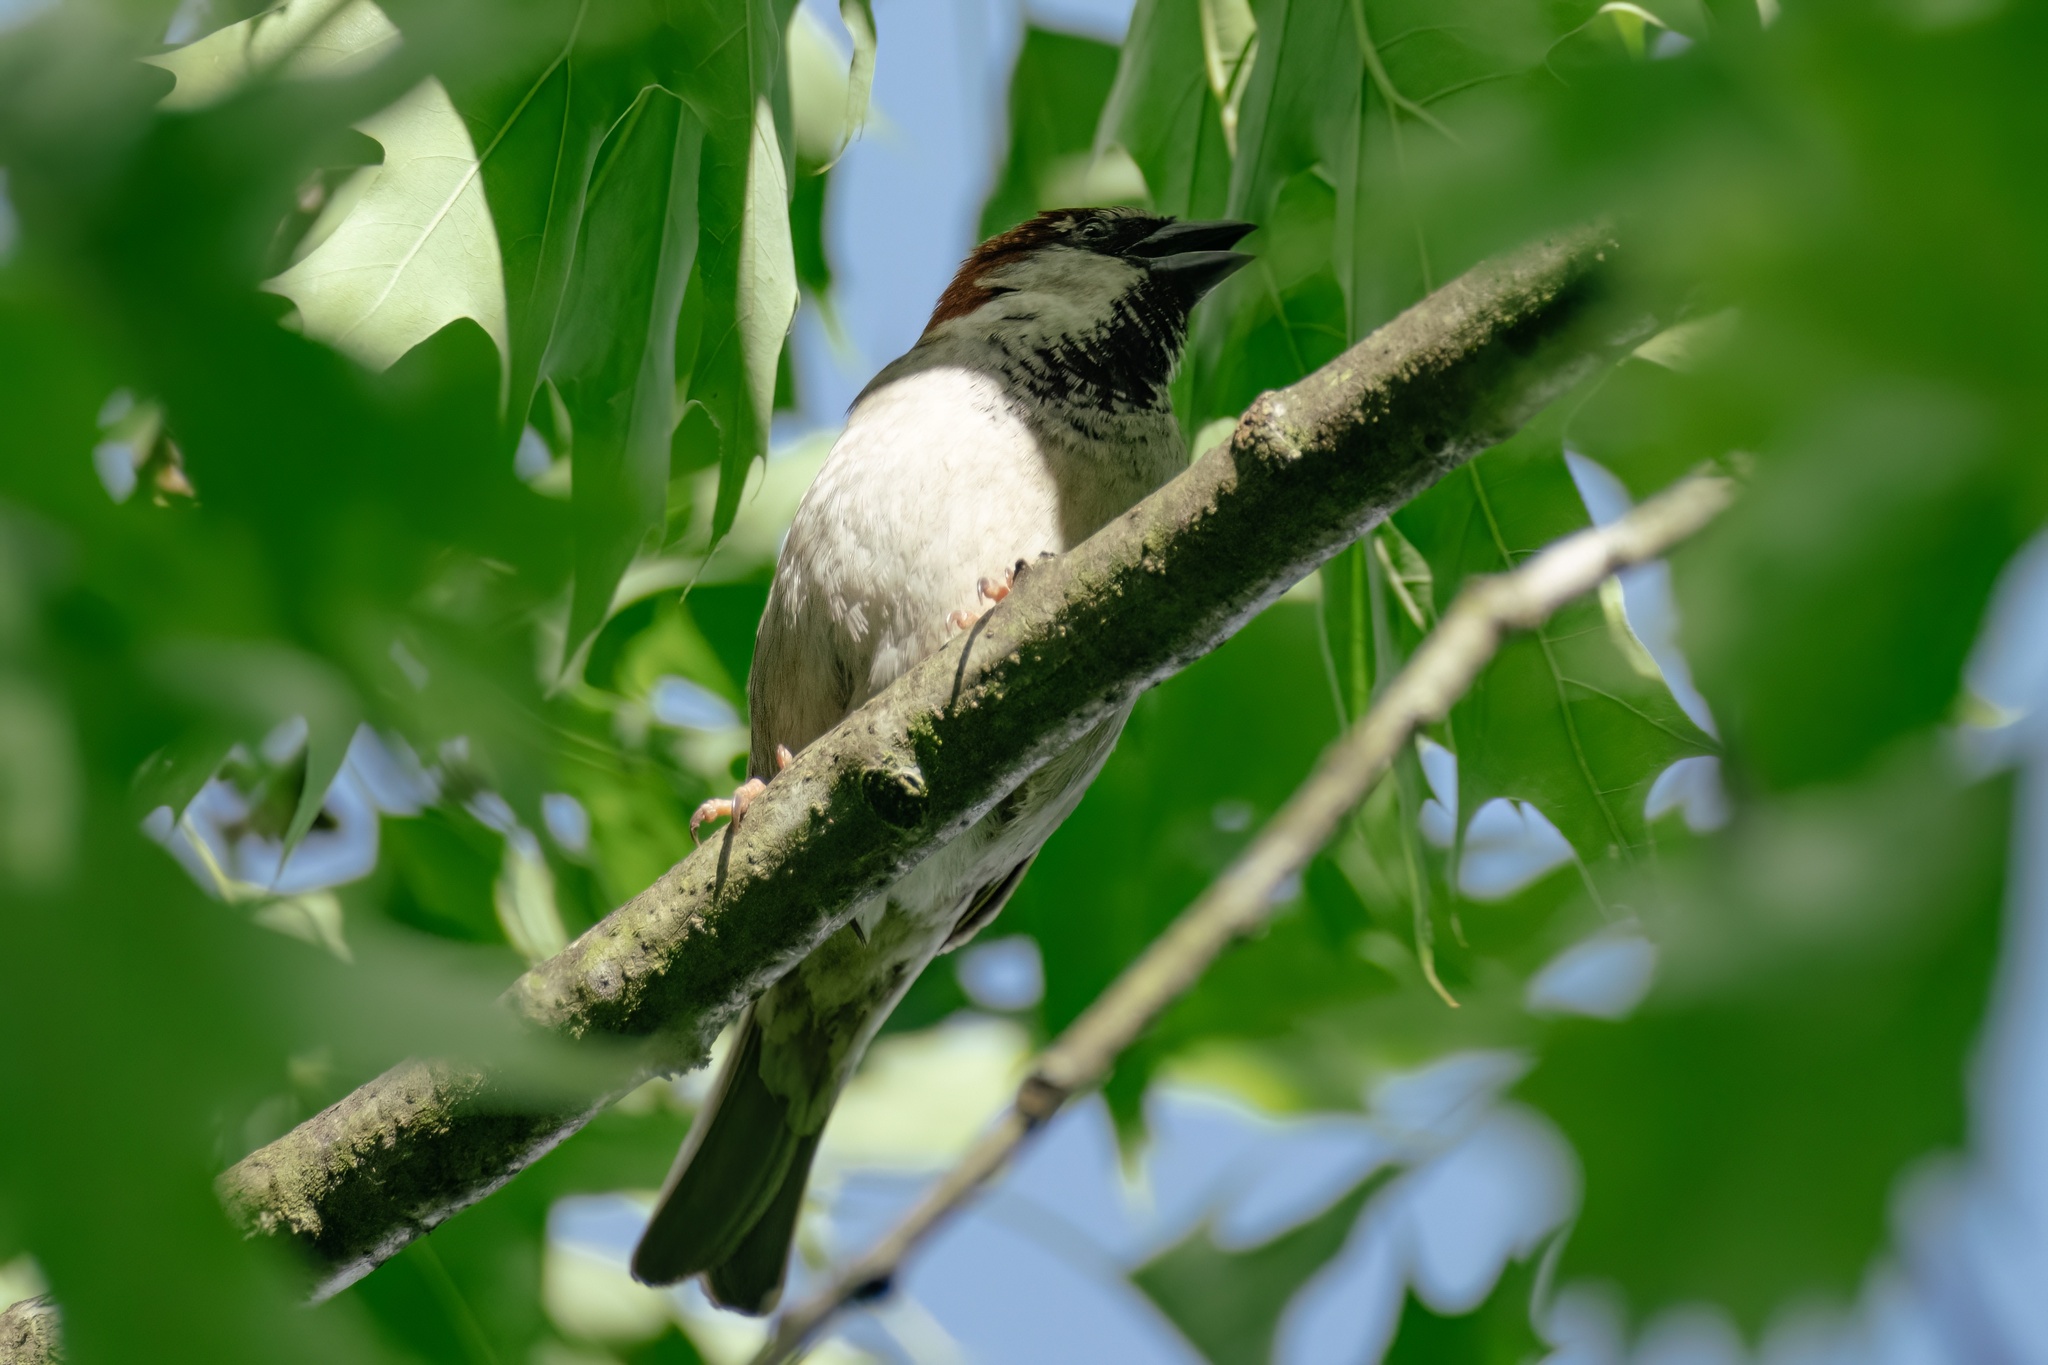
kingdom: Animalia
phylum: Chordata
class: Aves
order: Passeriformes
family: Passeridae
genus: Passer
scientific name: Passer domesticus
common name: House sparrow
